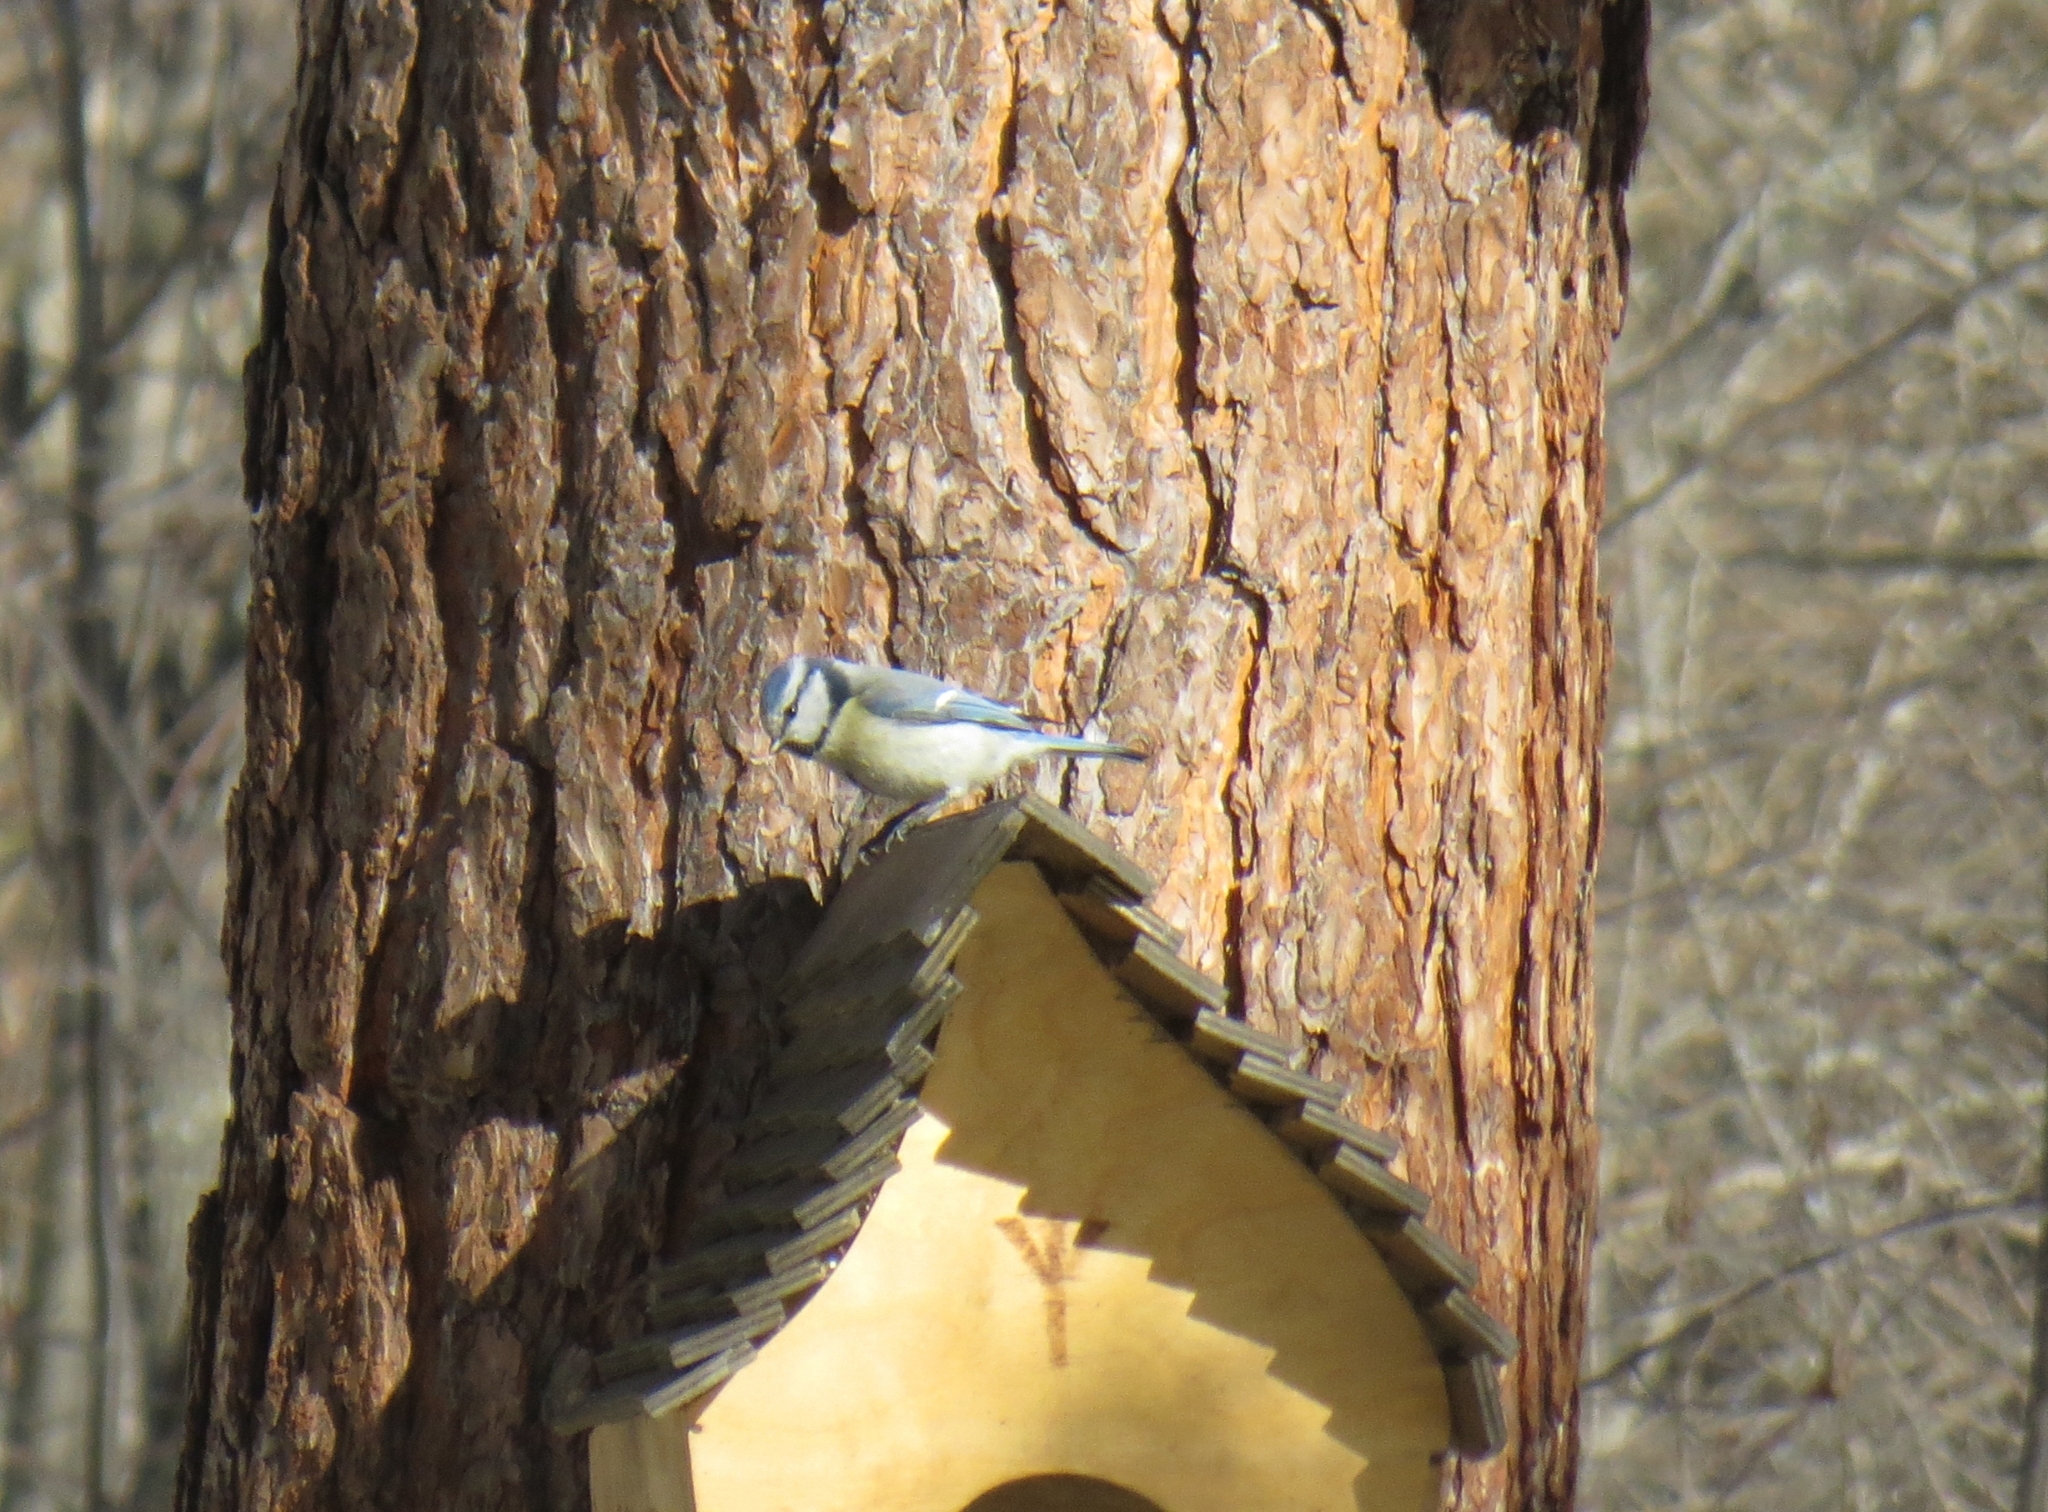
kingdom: Animalia
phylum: Chordata
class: Aves
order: Passeriformes
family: Paridae
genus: Cyanistes
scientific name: Cyanistes caeruleus
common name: Eurasian blue tit
